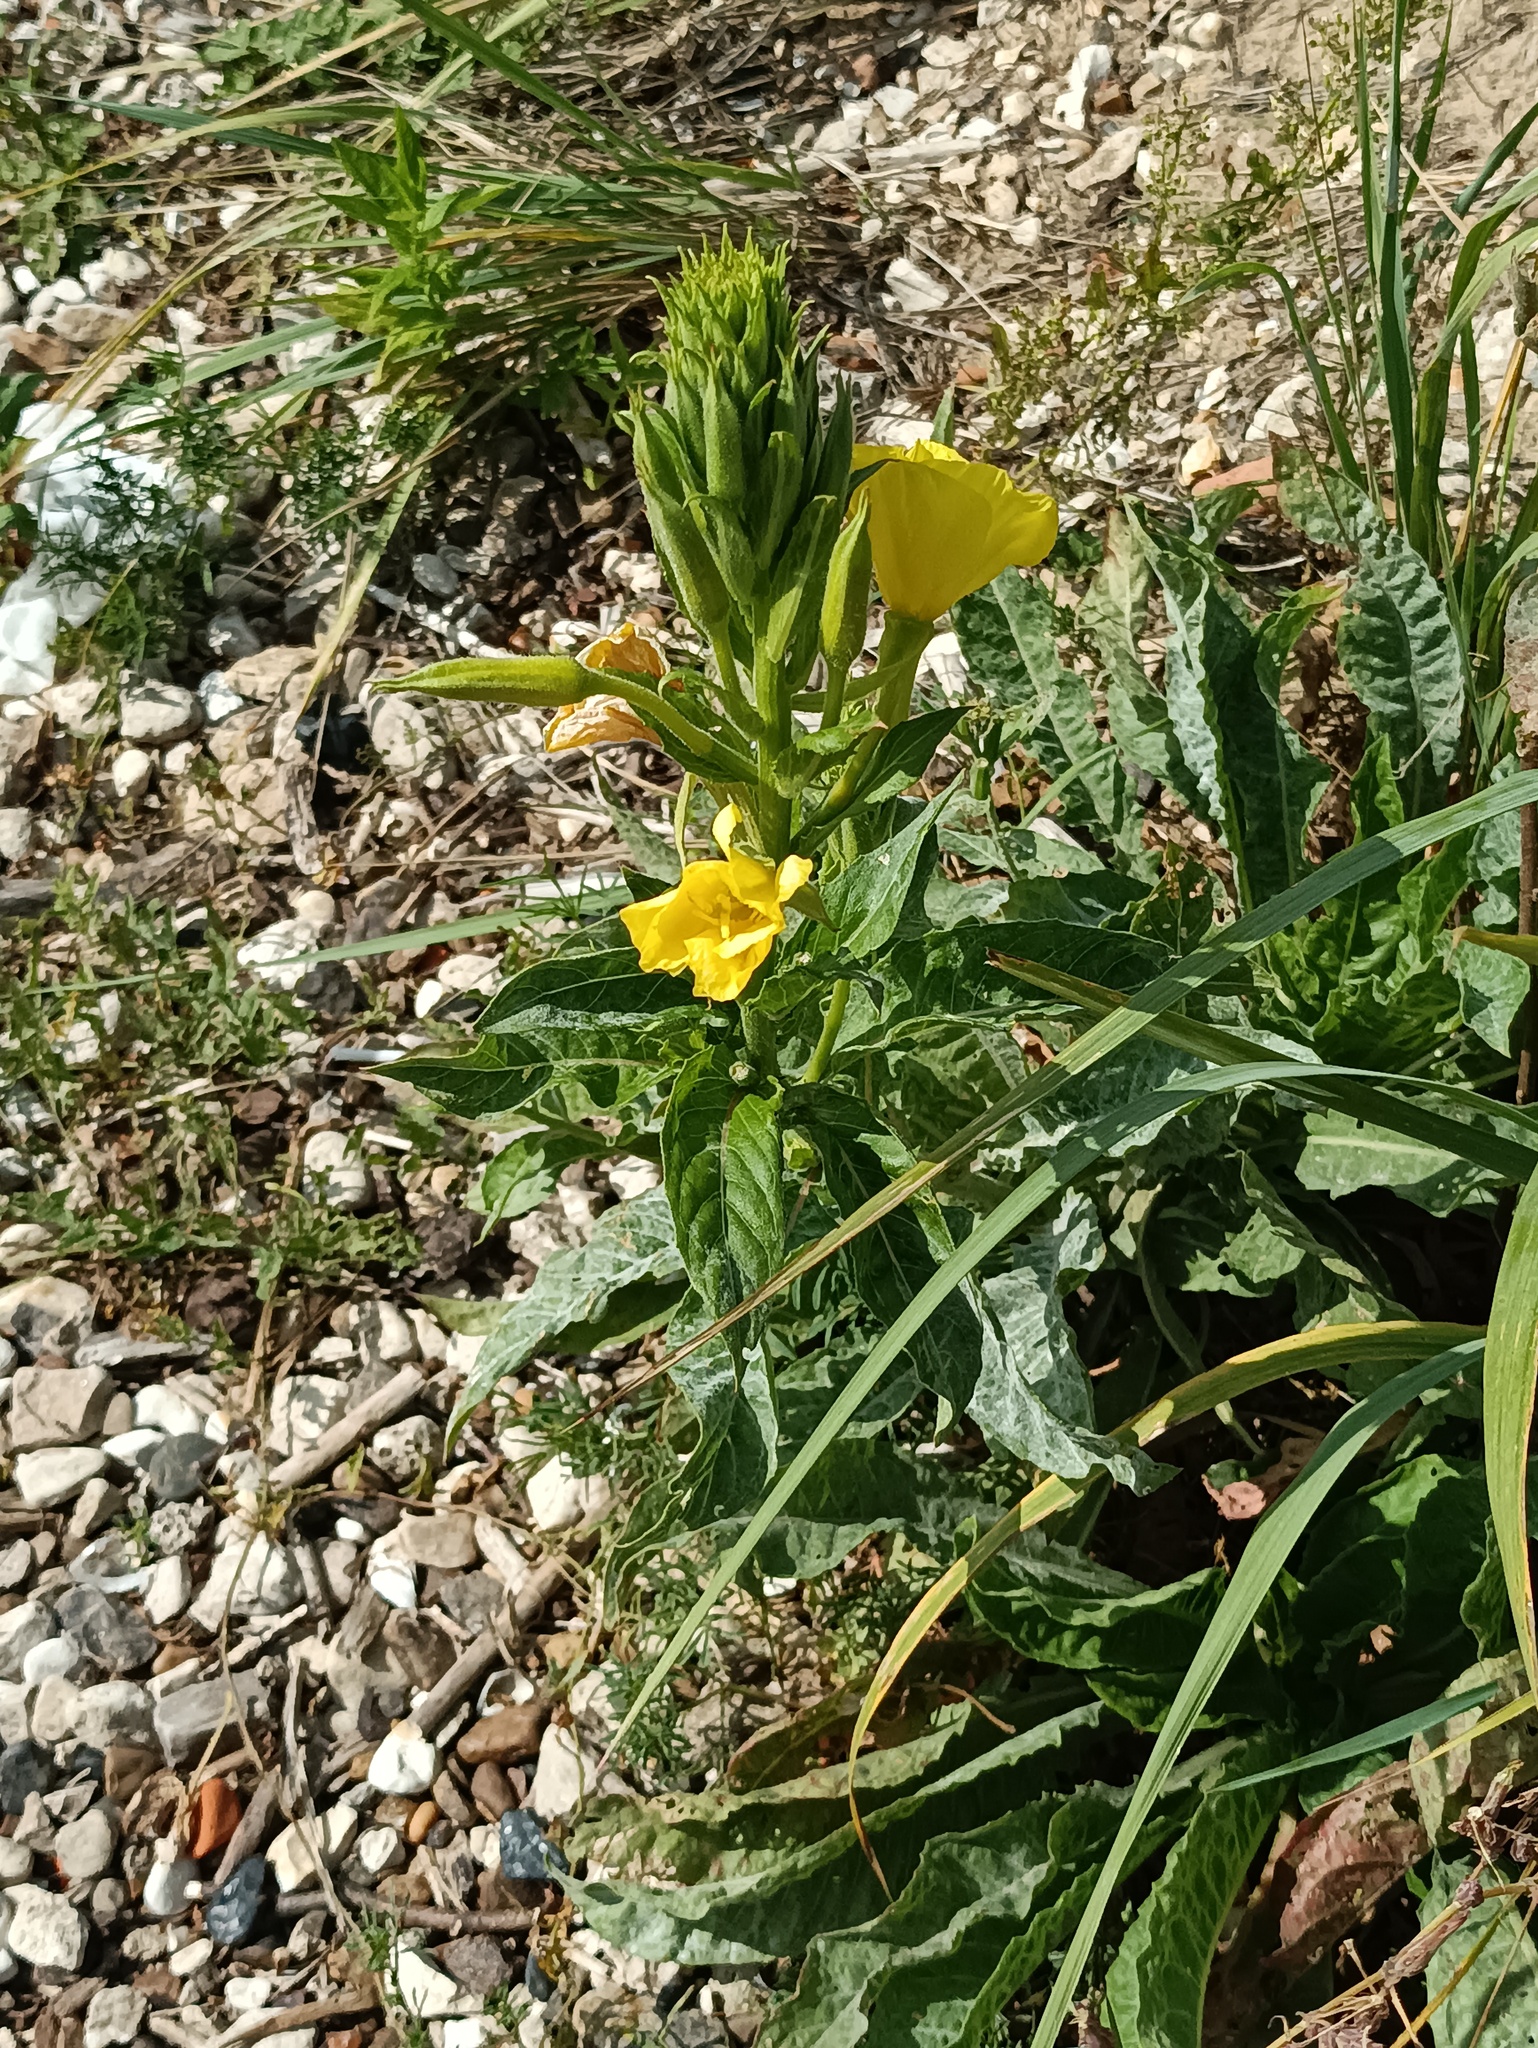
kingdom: Plantae
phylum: Tracheophyta
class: Magnoliopsida
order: Myrtales
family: Onagraceae
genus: Oenothera
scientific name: Oenothera biennis
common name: Common evening-primrose
